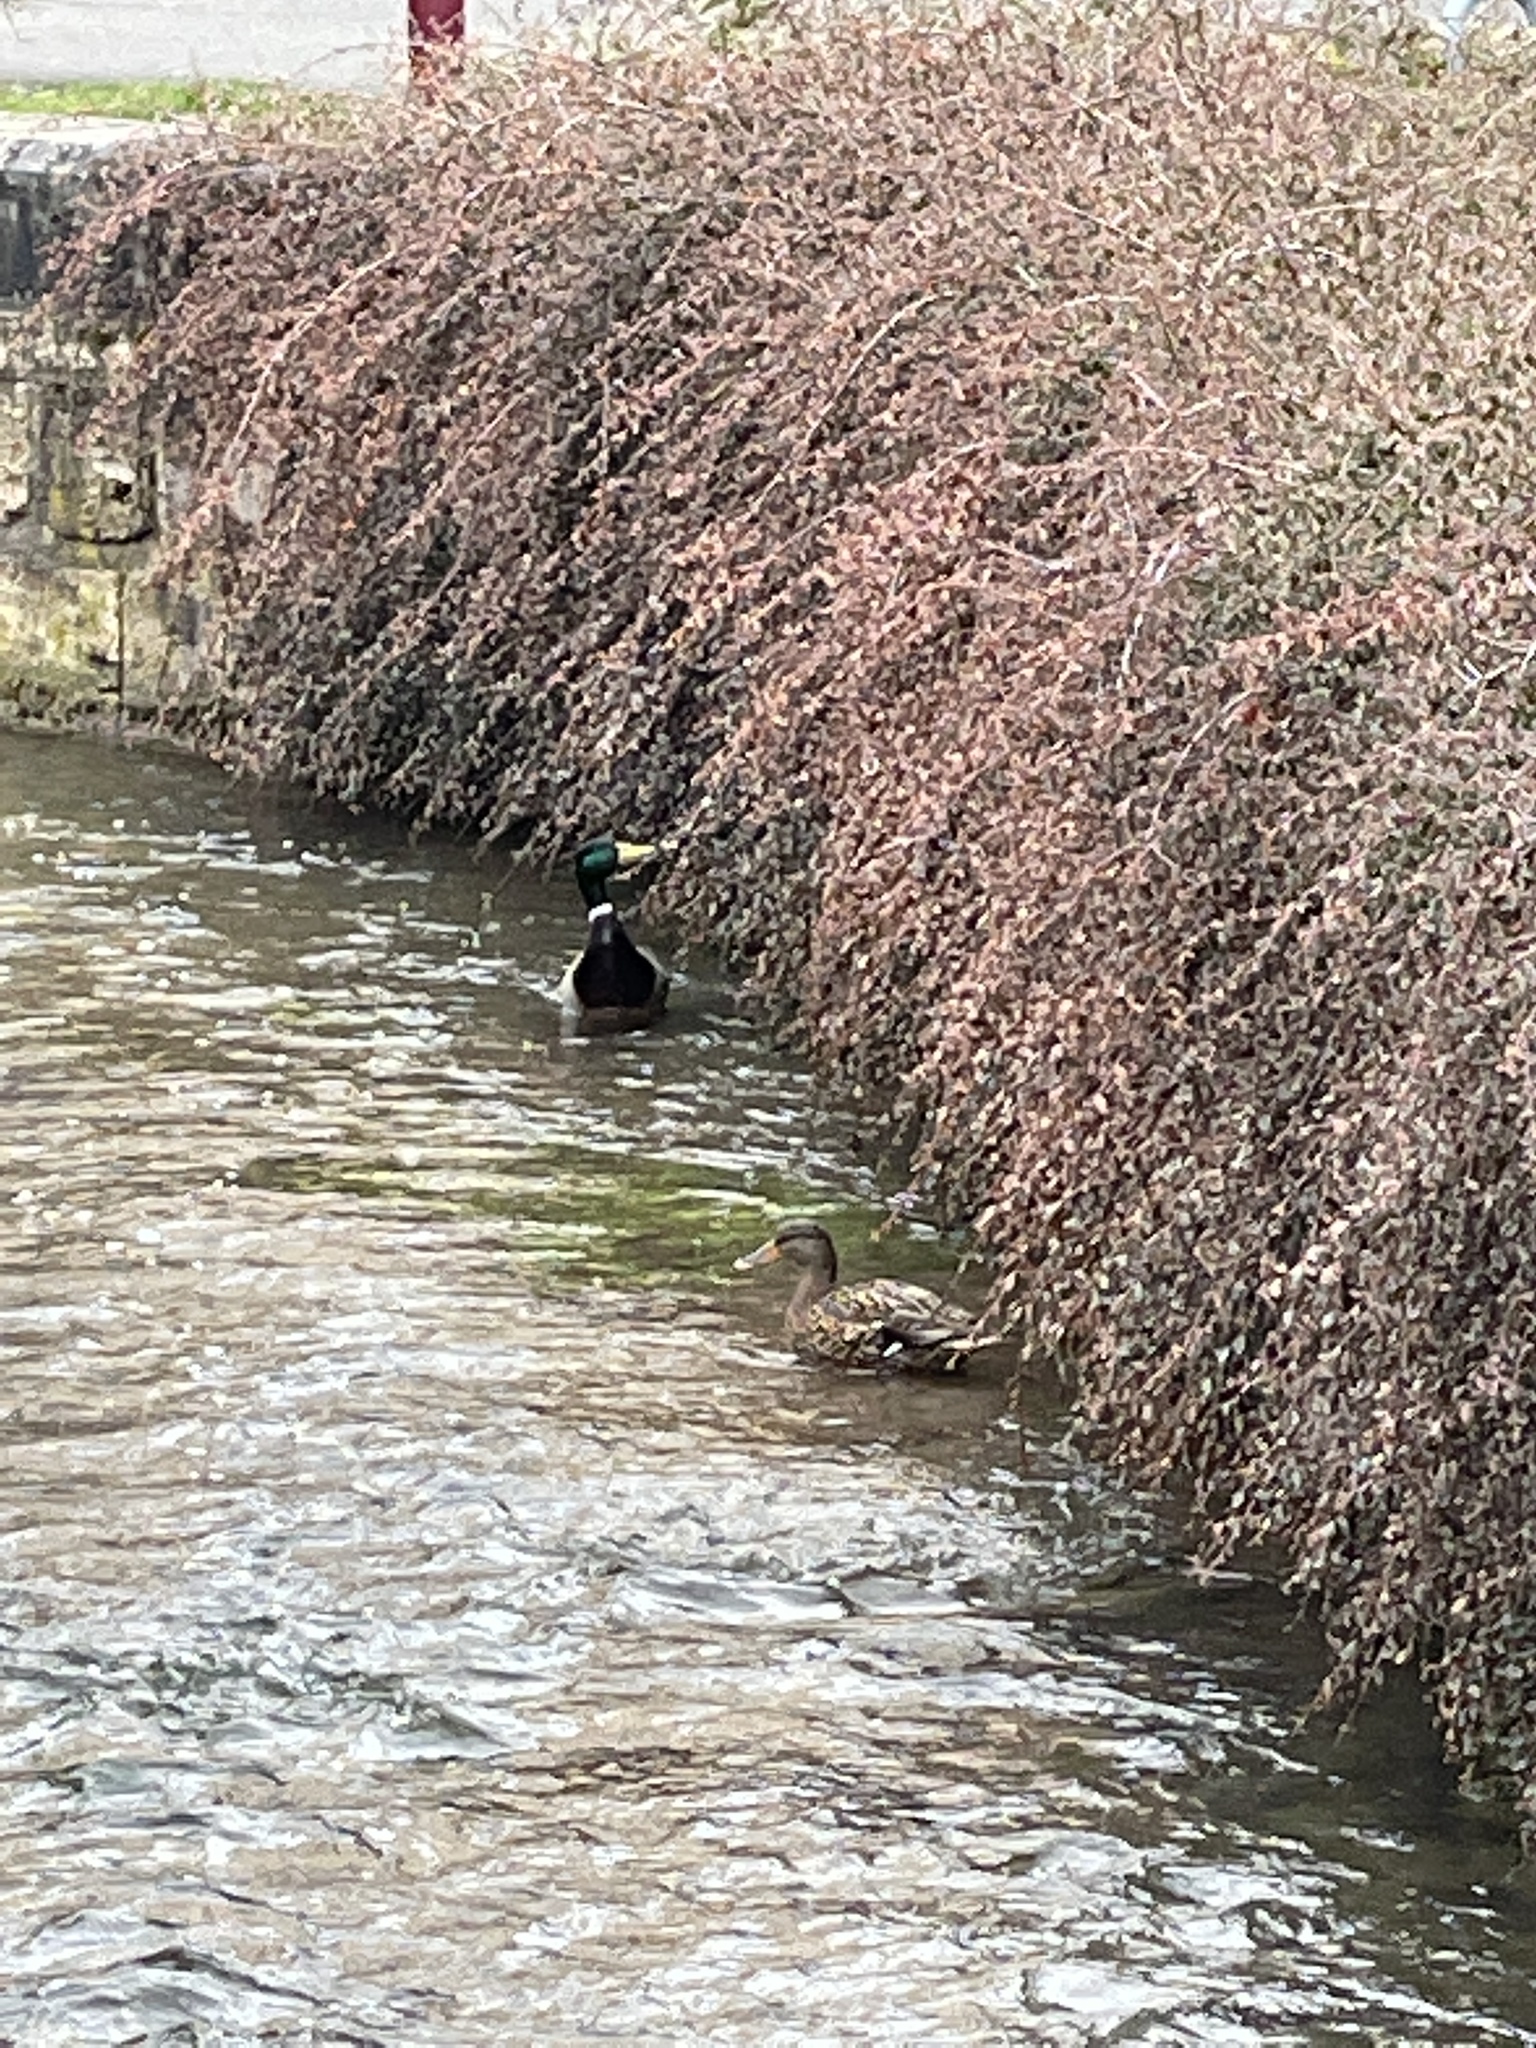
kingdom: Animalia
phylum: Chordata
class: Aves
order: Anseriformes
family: Anatidae
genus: Anas
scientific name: Anas platyrhynchos
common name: Mallard
